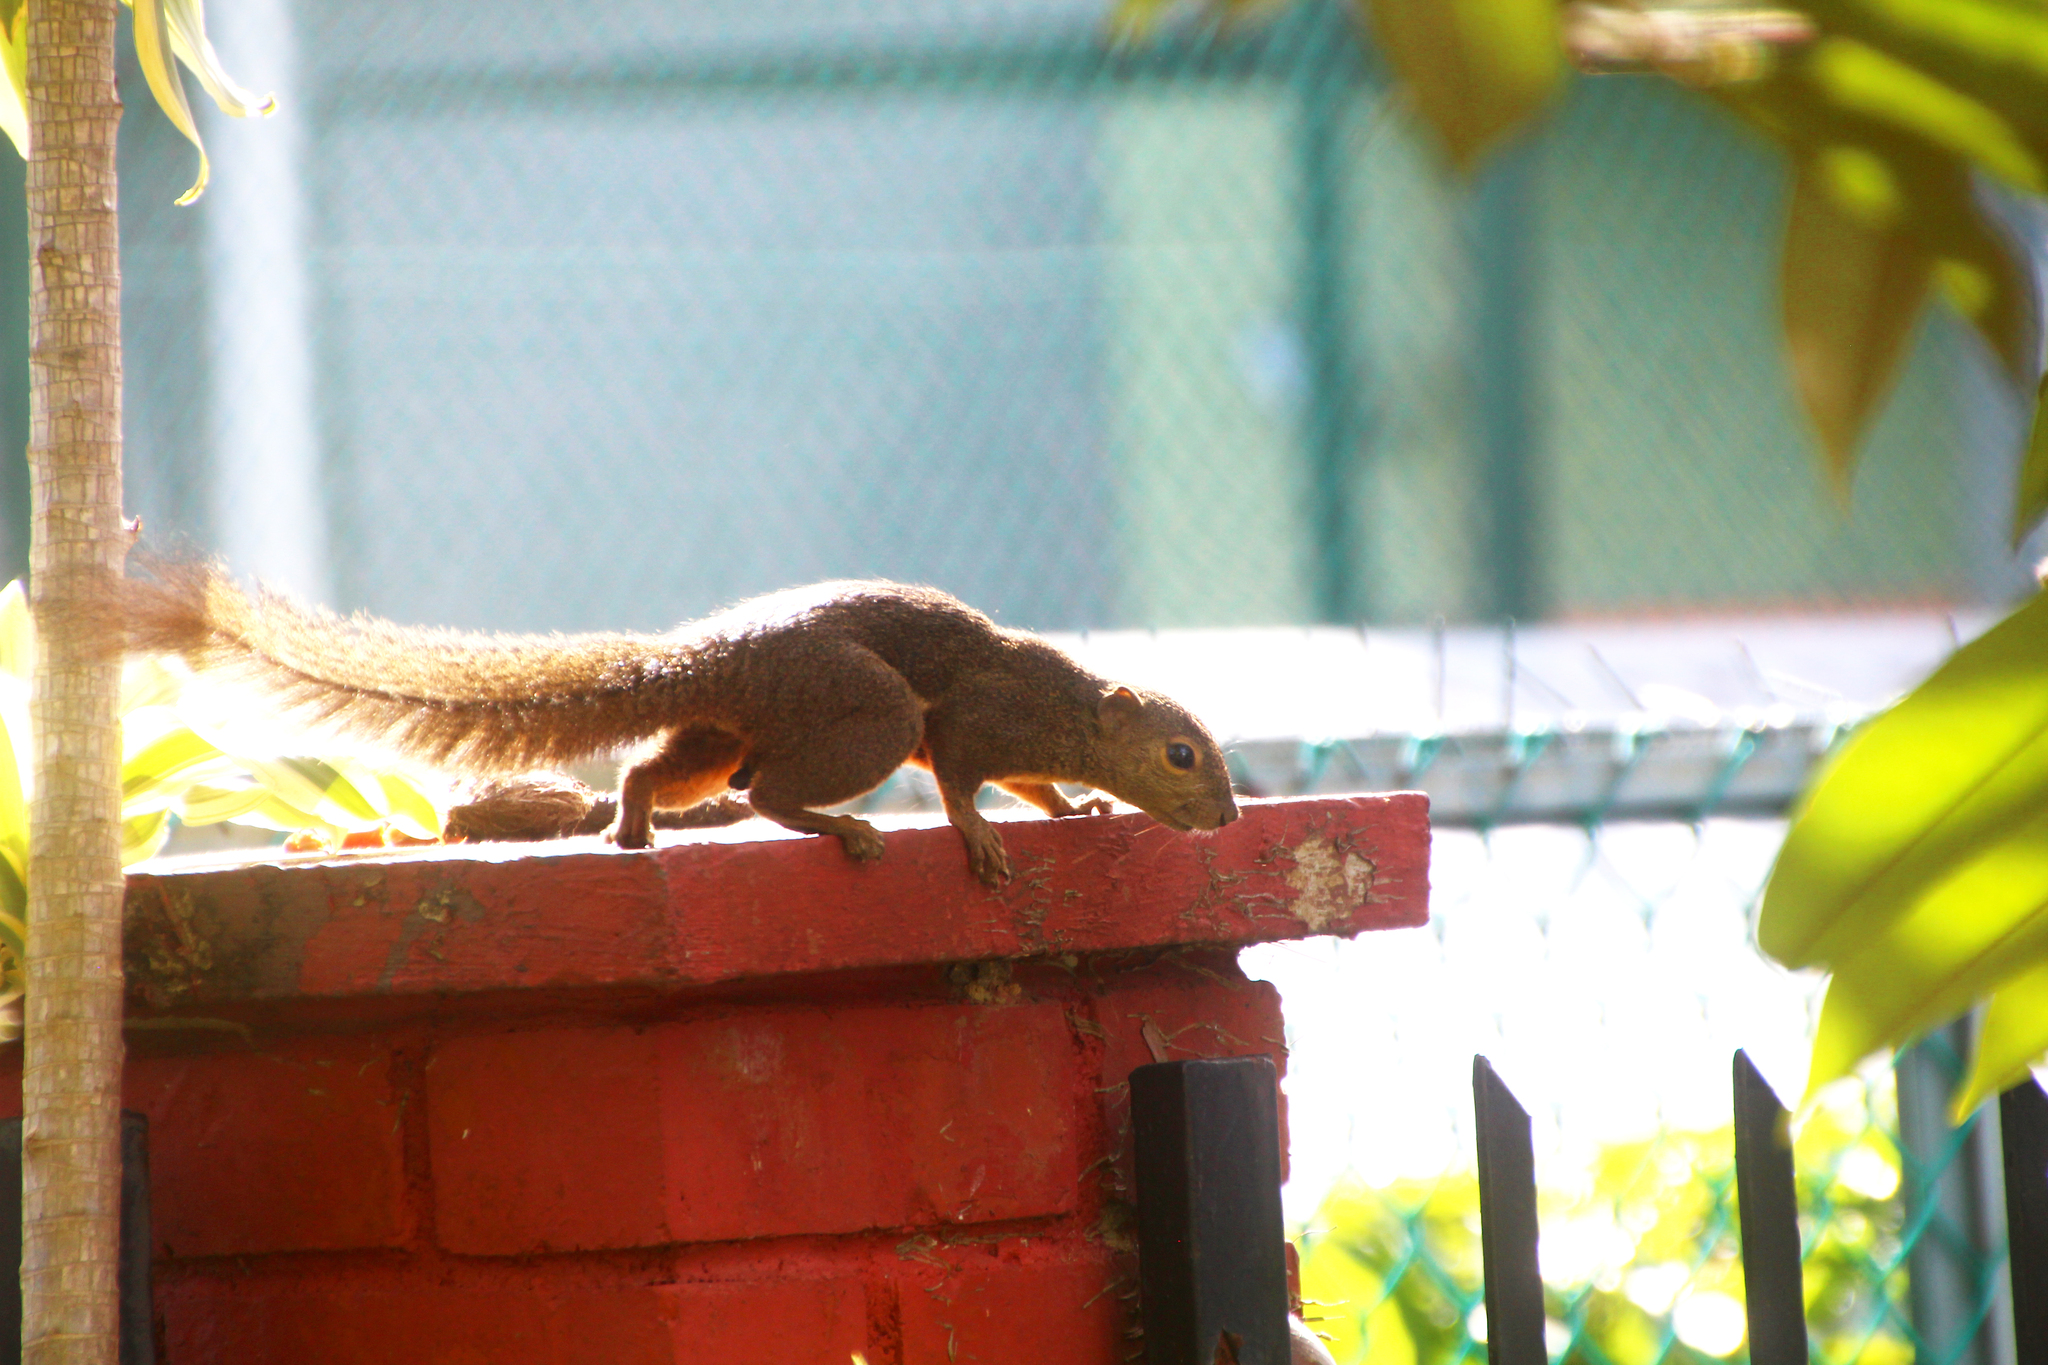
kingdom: Animalia
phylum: Chordata
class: Mammalia
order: Rodentia
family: Sciuridae
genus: Callosciurus
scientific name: Callosciurus notatus
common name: Plantain squirrel
